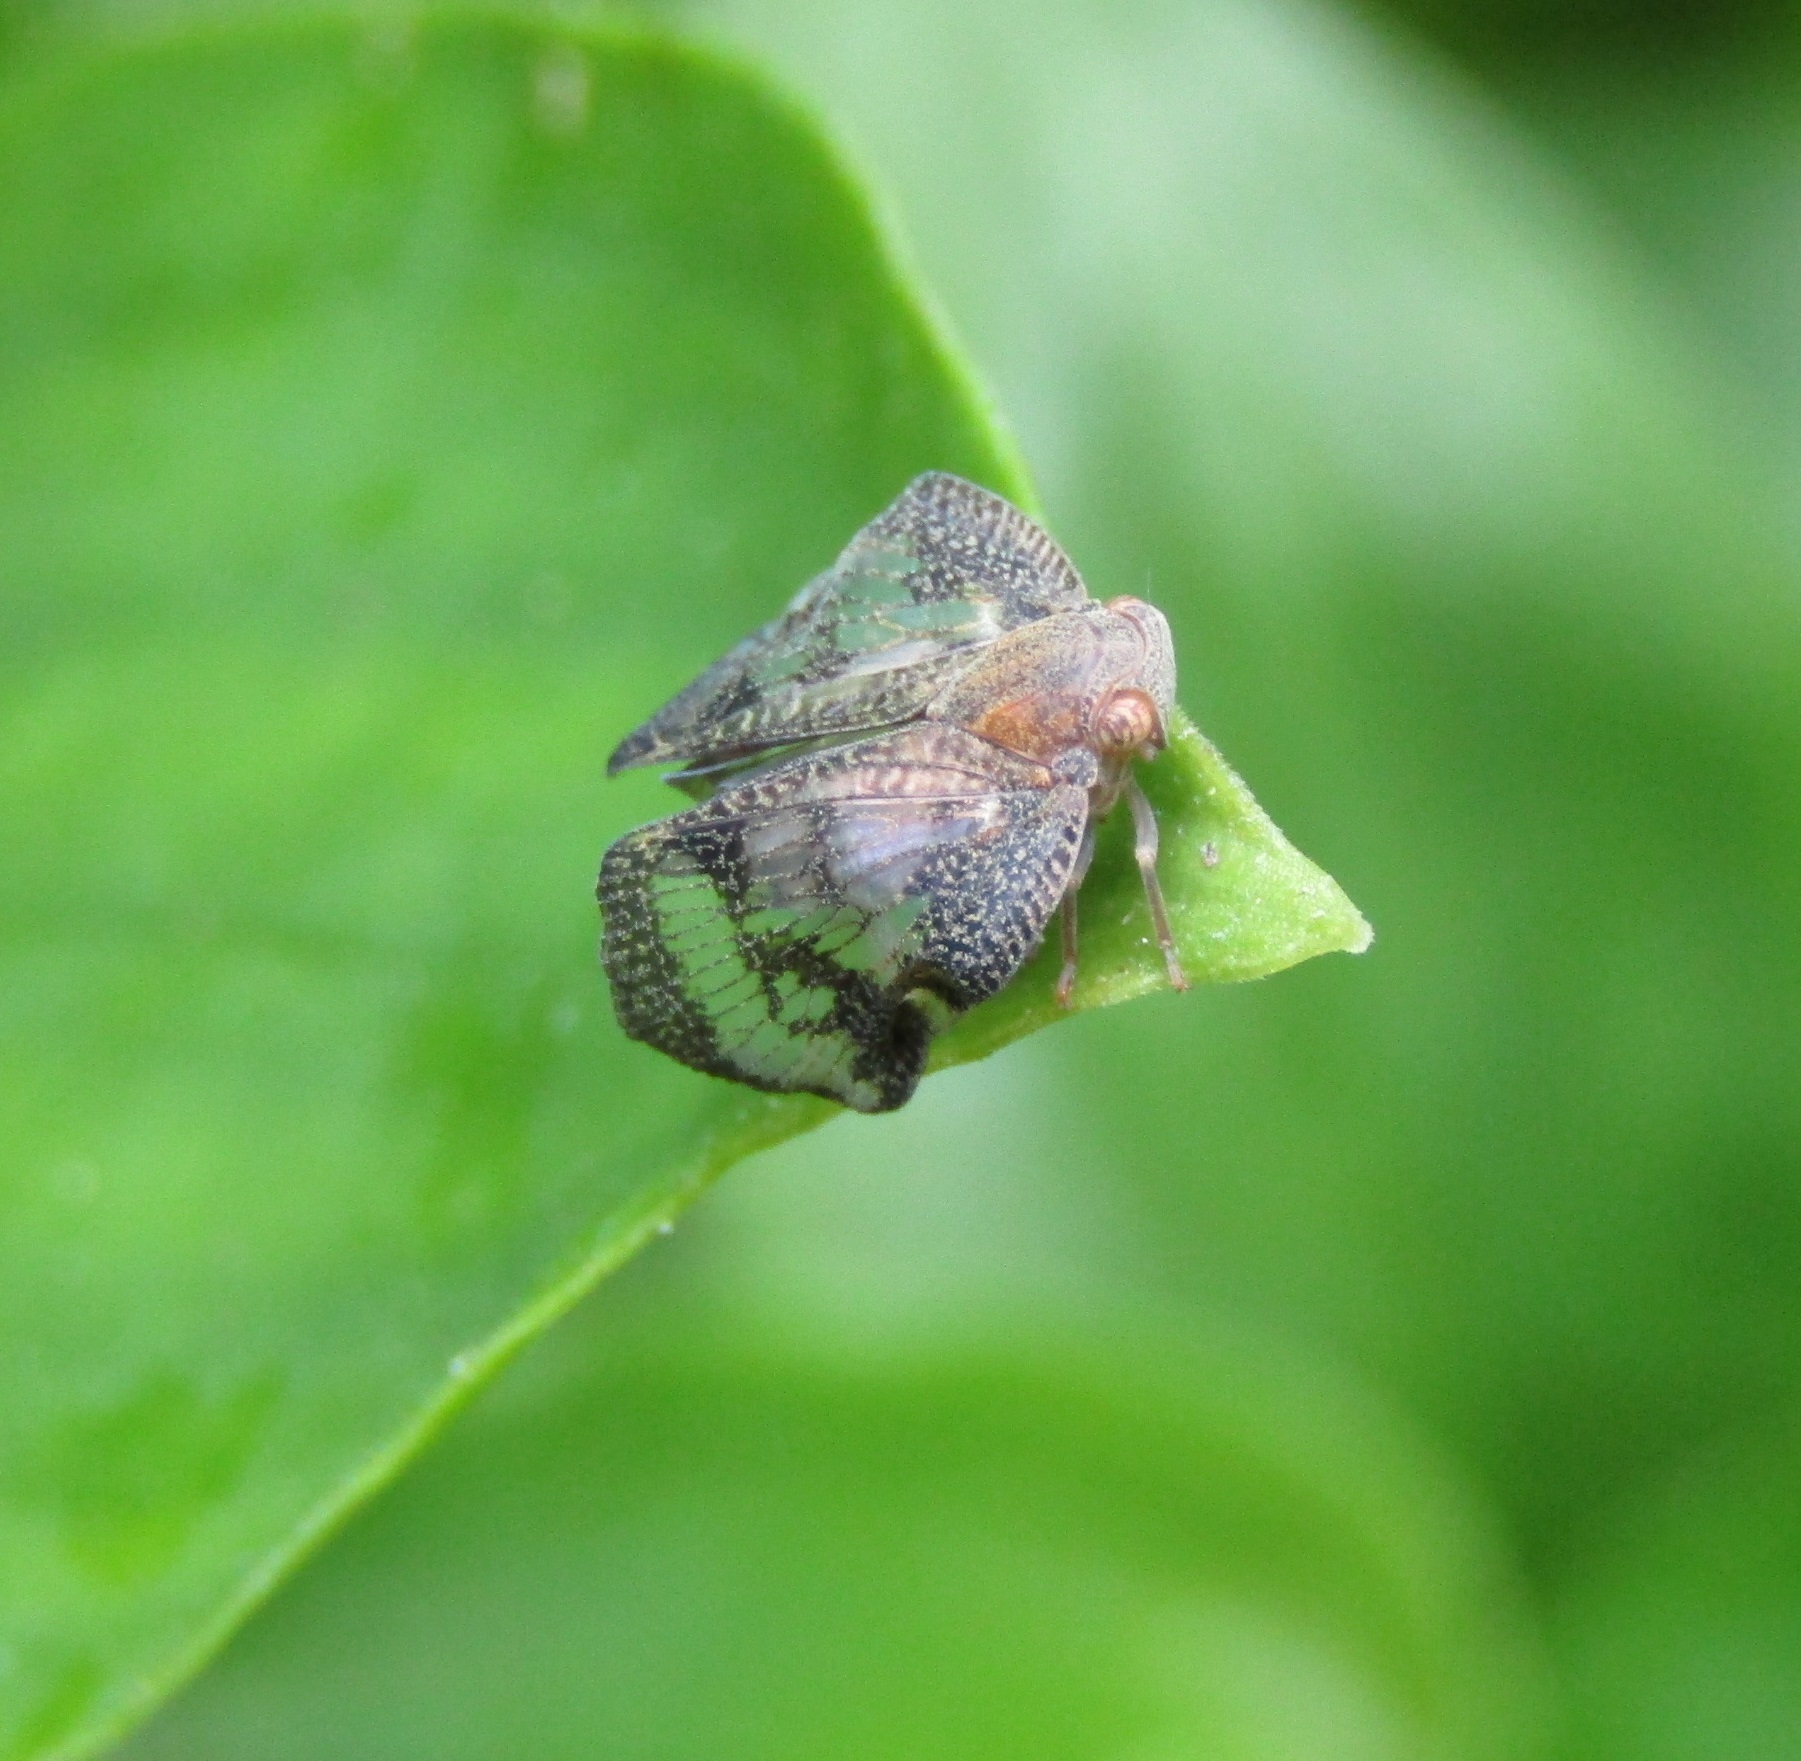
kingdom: Animalia
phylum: Arthropoda
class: Insecta
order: Hemiptera
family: Ricaniidae
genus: Scolypopa
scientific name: Scolypopa australis
